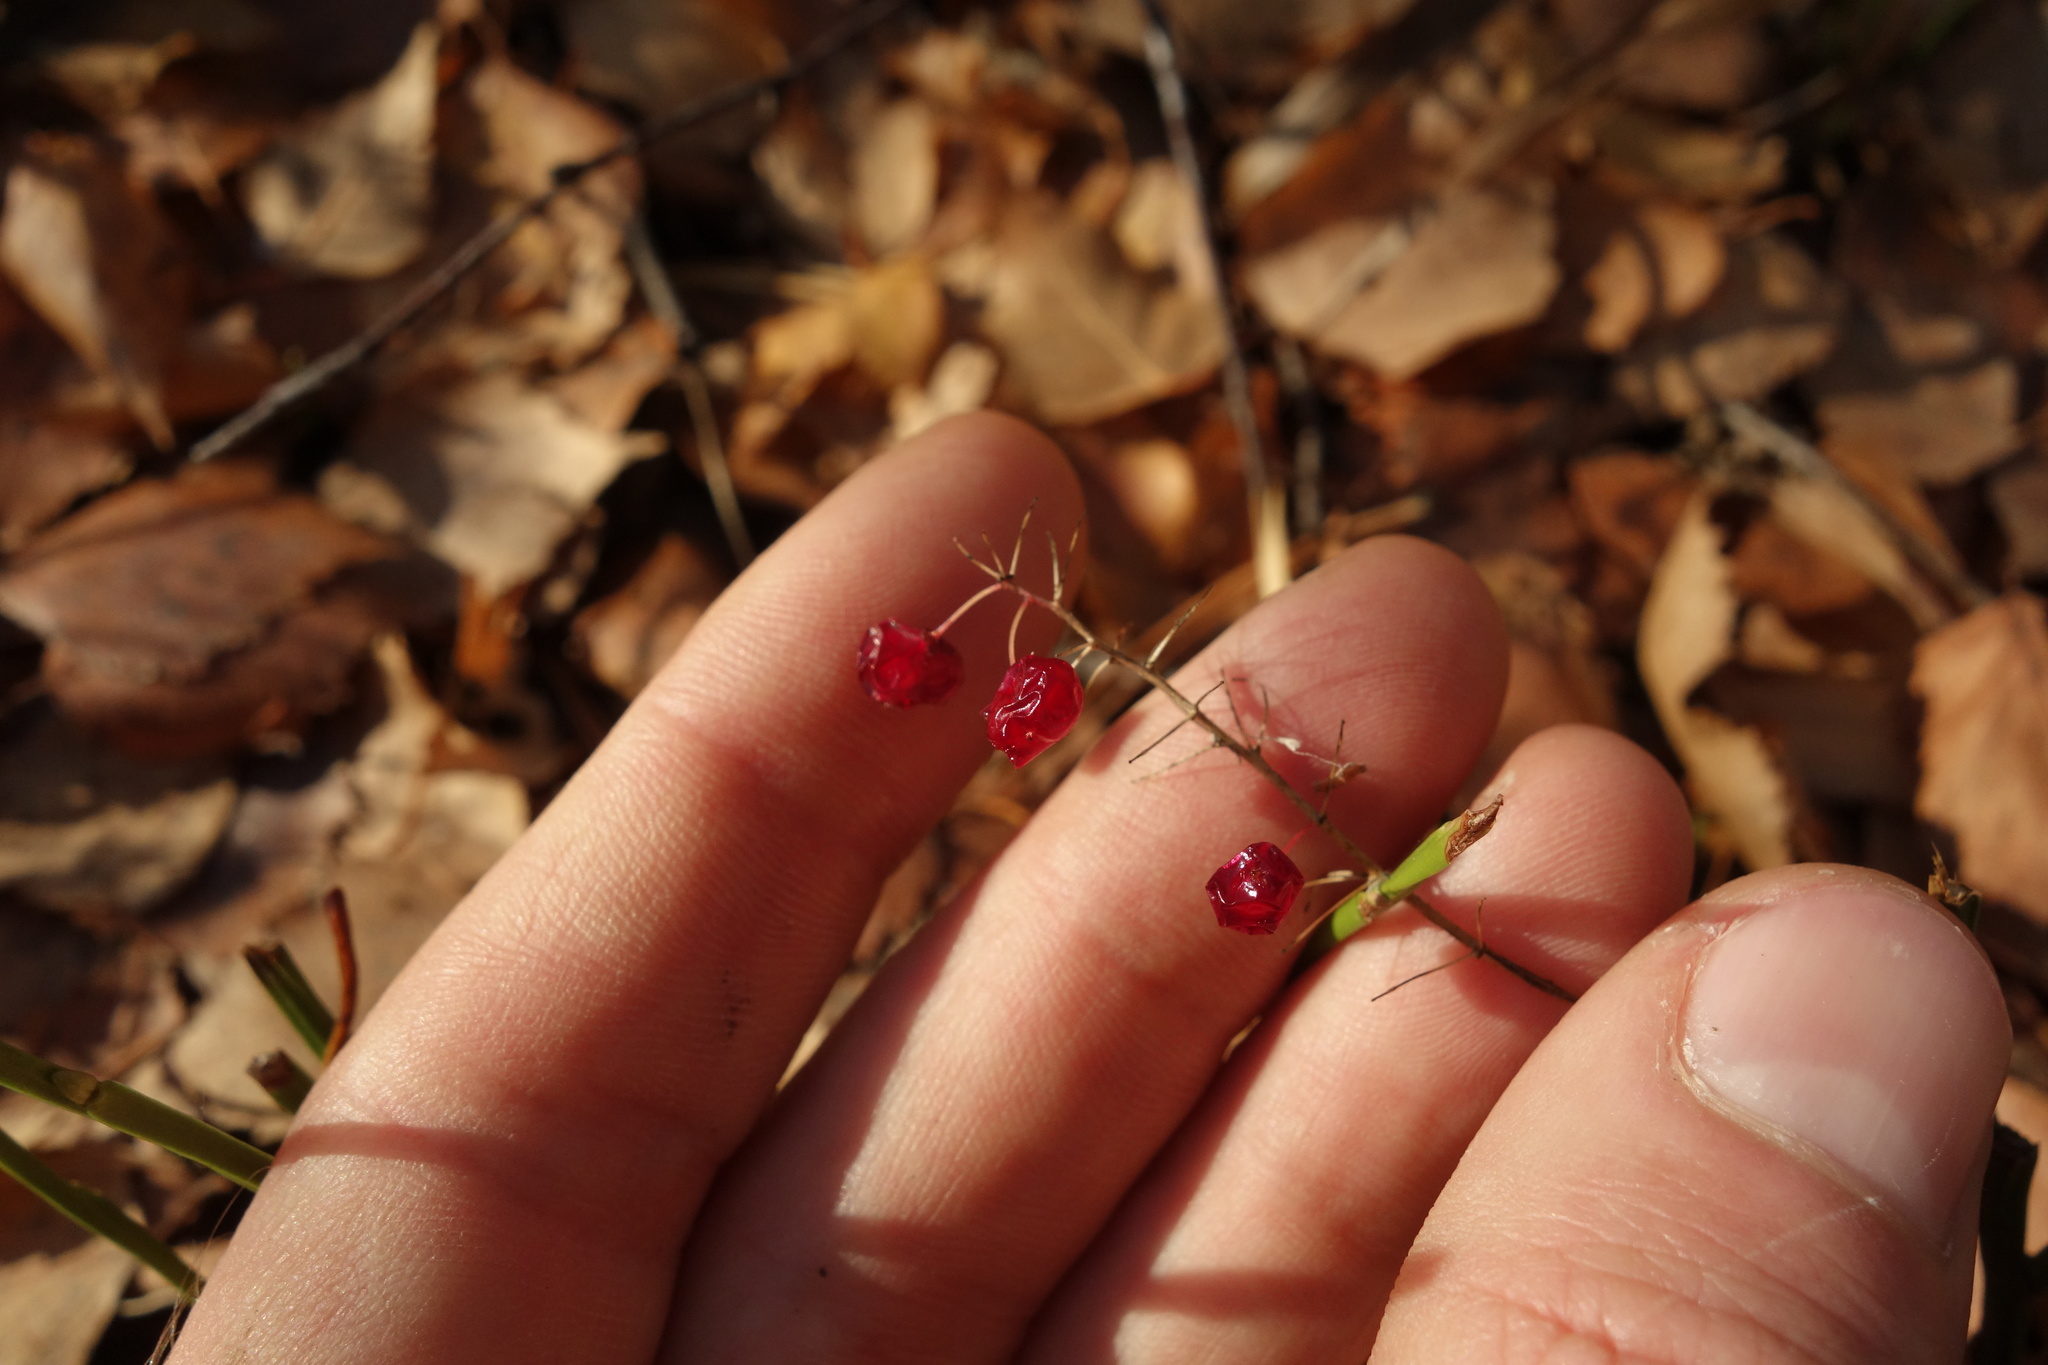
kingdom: Plantae
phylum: Tracheophyta
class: Liliopsida
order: Asparagales
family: Asparagaceae
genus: Maianthemum
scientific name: Maianthemum bifolium
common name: May lily
